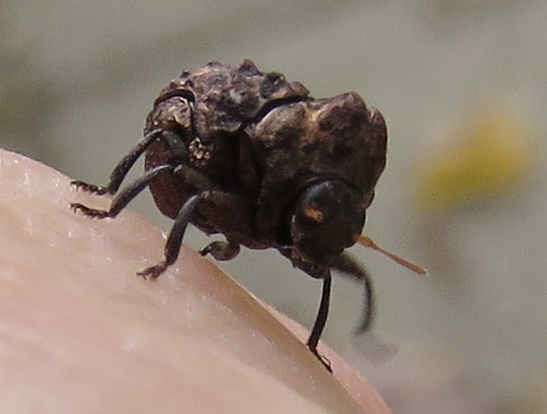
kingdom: Animalia
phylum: Arthropoda
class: Insecta
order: Coleoptera
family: Chrysomelidae
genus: Diplacaspis
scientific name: Diplacaspis prosternalis
